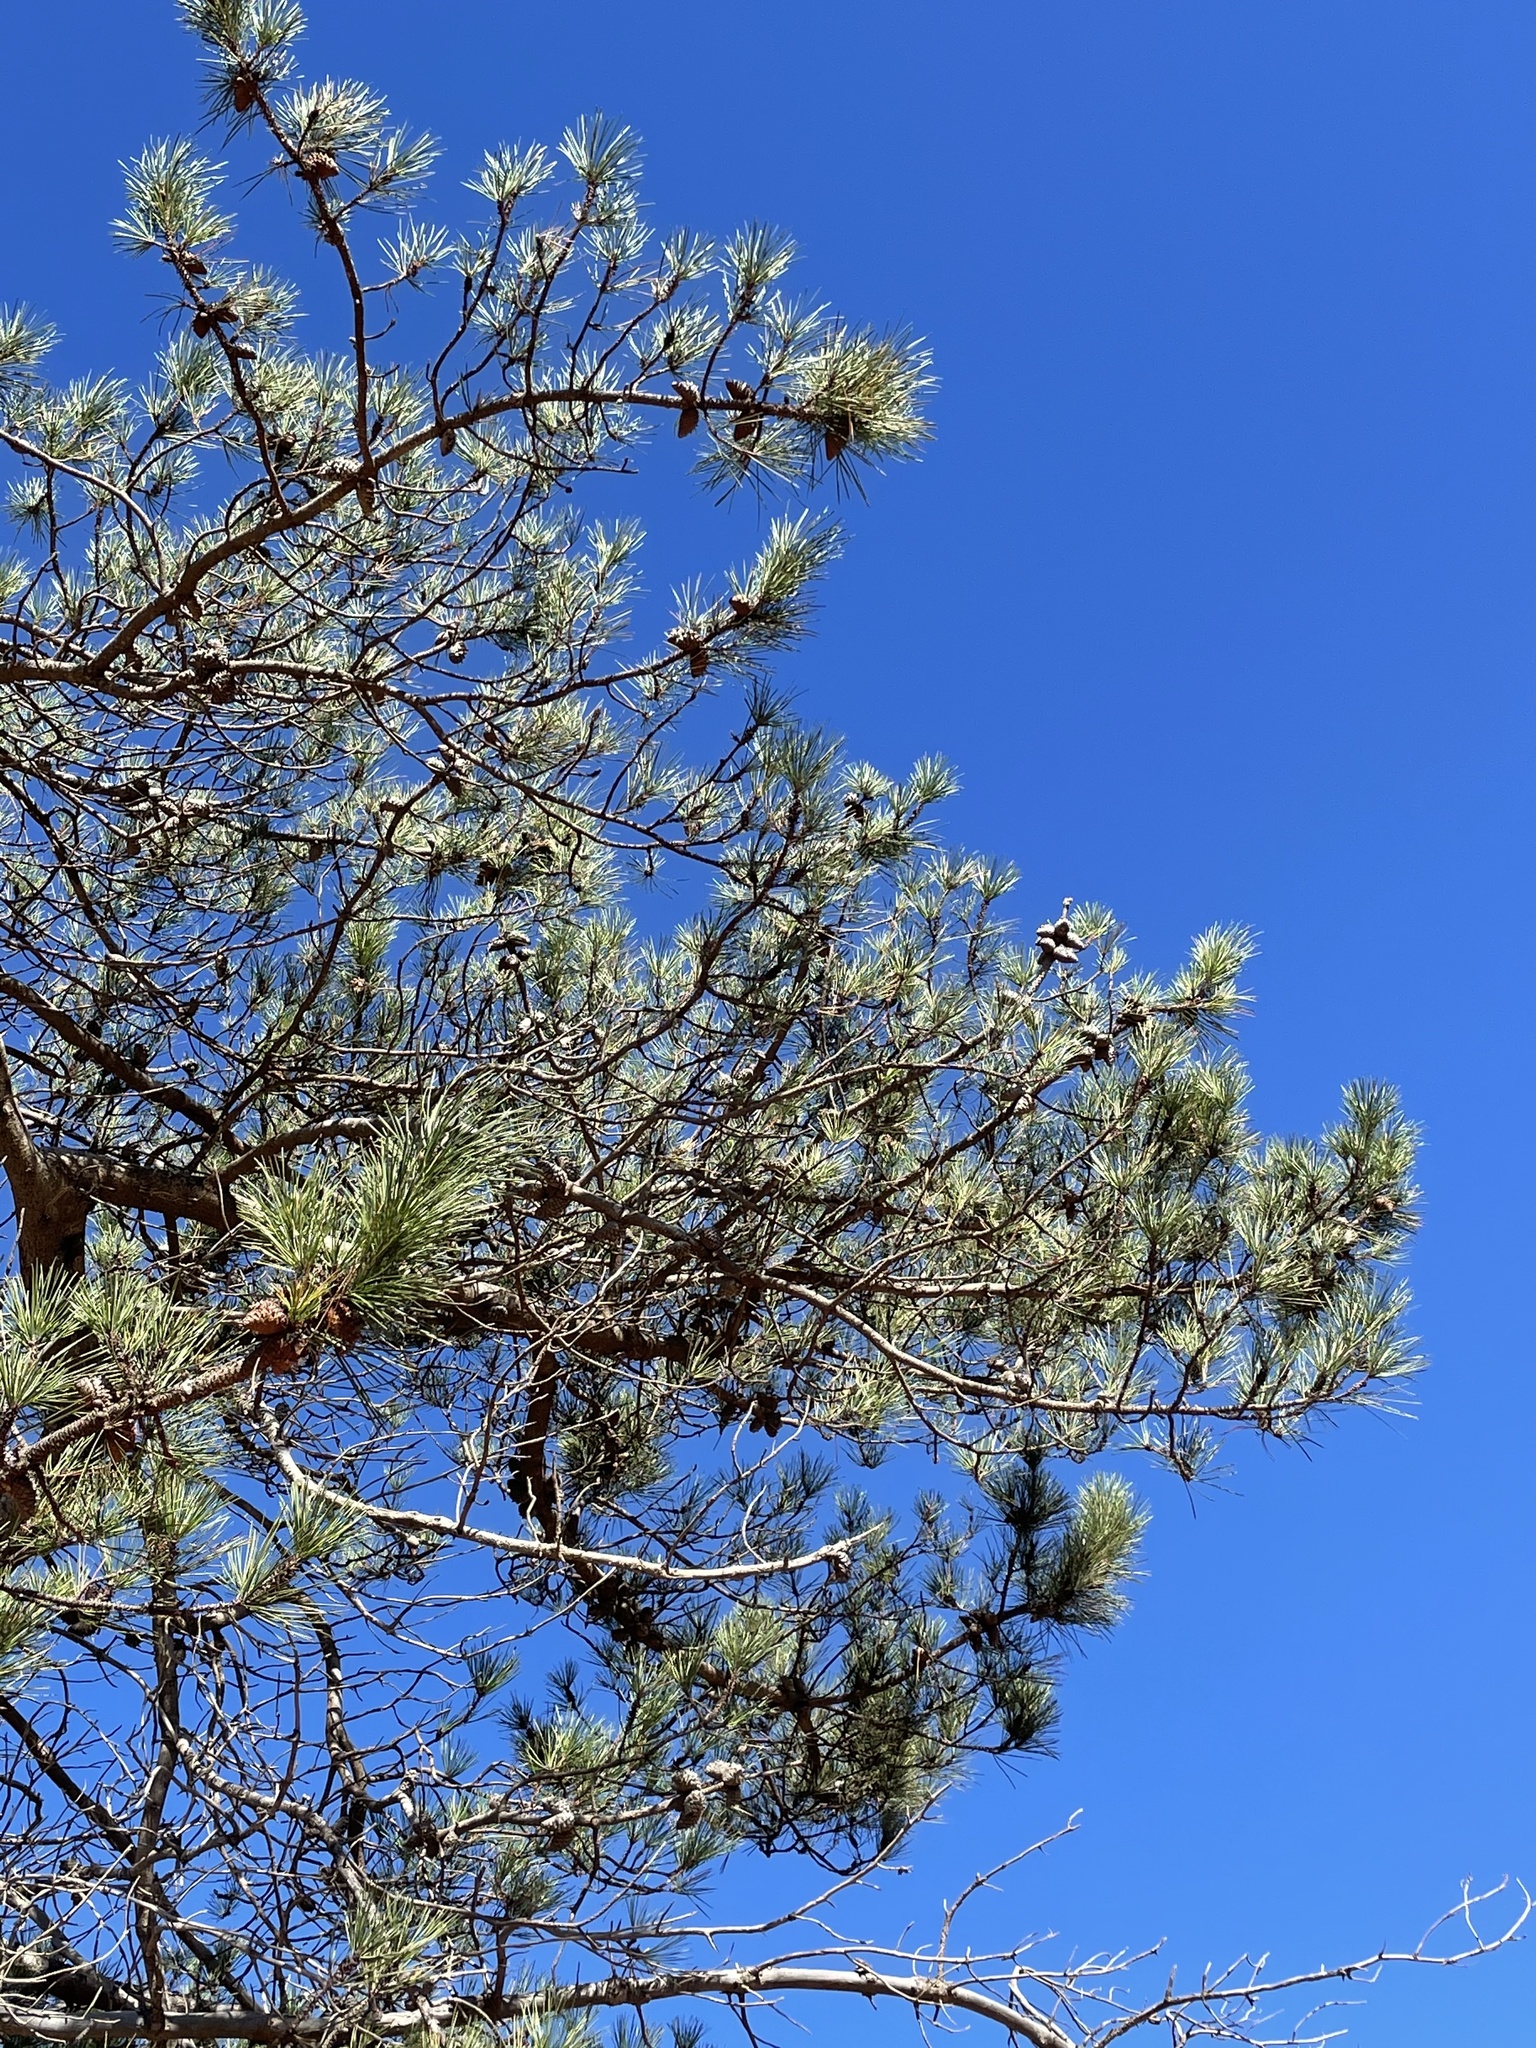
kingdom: Plantae
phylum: Tracheophyta
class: Pinopsida
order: Pinales
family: Pinaceae
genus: Pinus
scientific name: Pinus muricata
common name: Bishop pine
